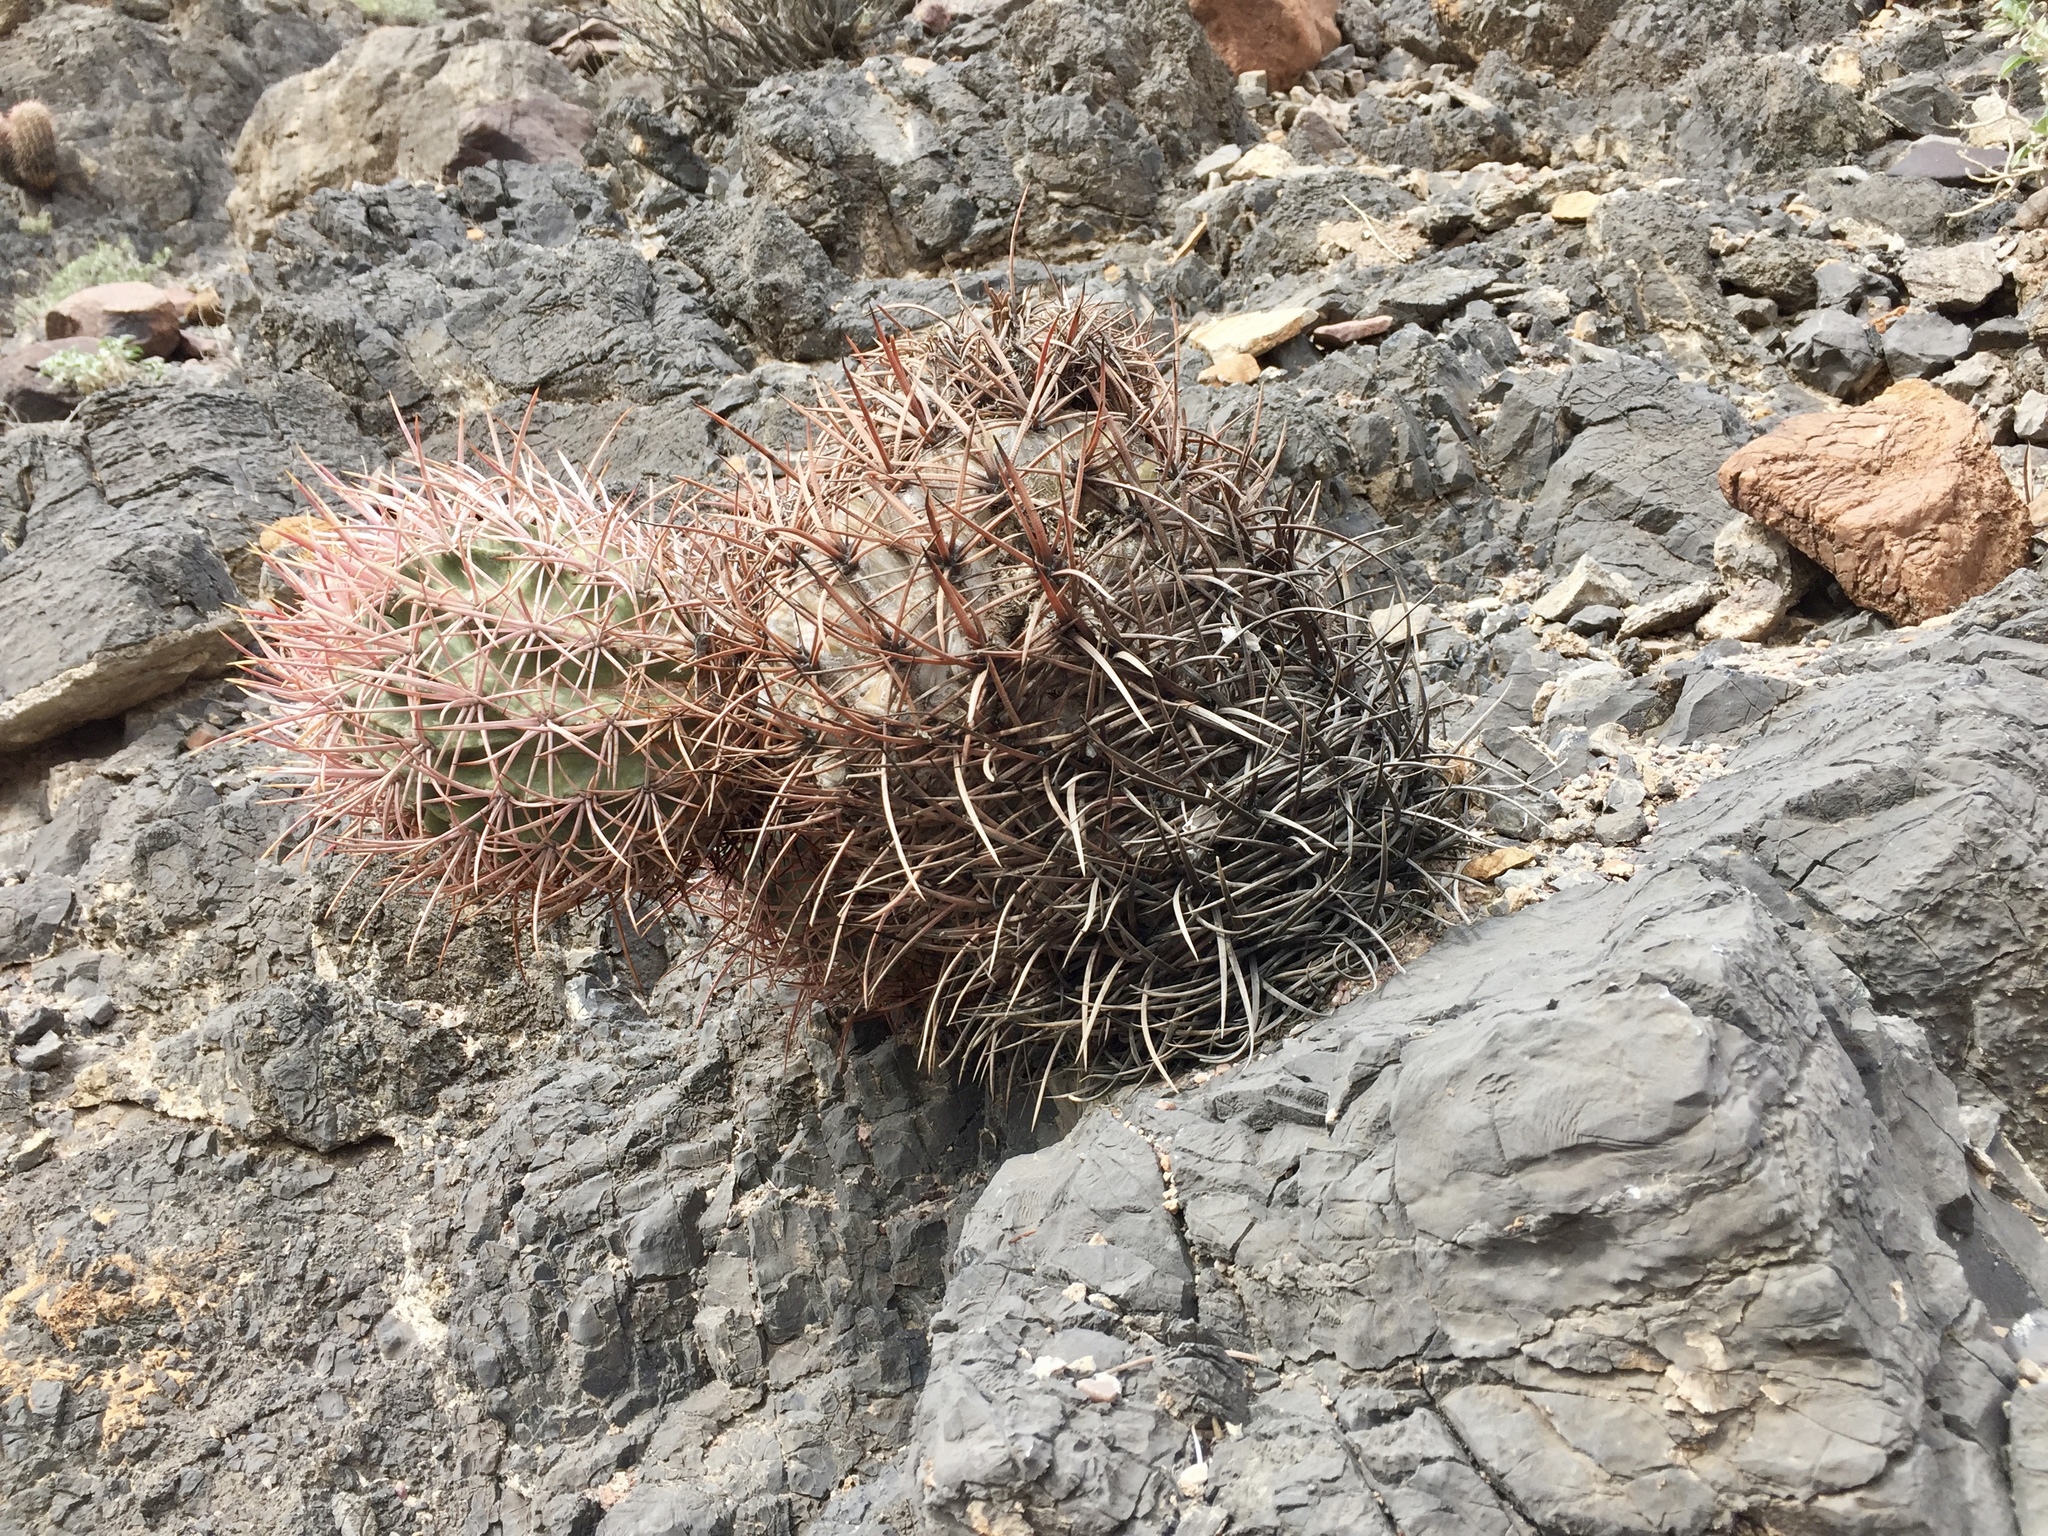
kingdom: Plantae
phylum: Tracheophyta
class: Magnoliopsida
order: Caryophyllales
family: Cactaceae
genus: Echinocactus
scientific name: Echinocactus polycephalus
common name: Cottontop cactus
